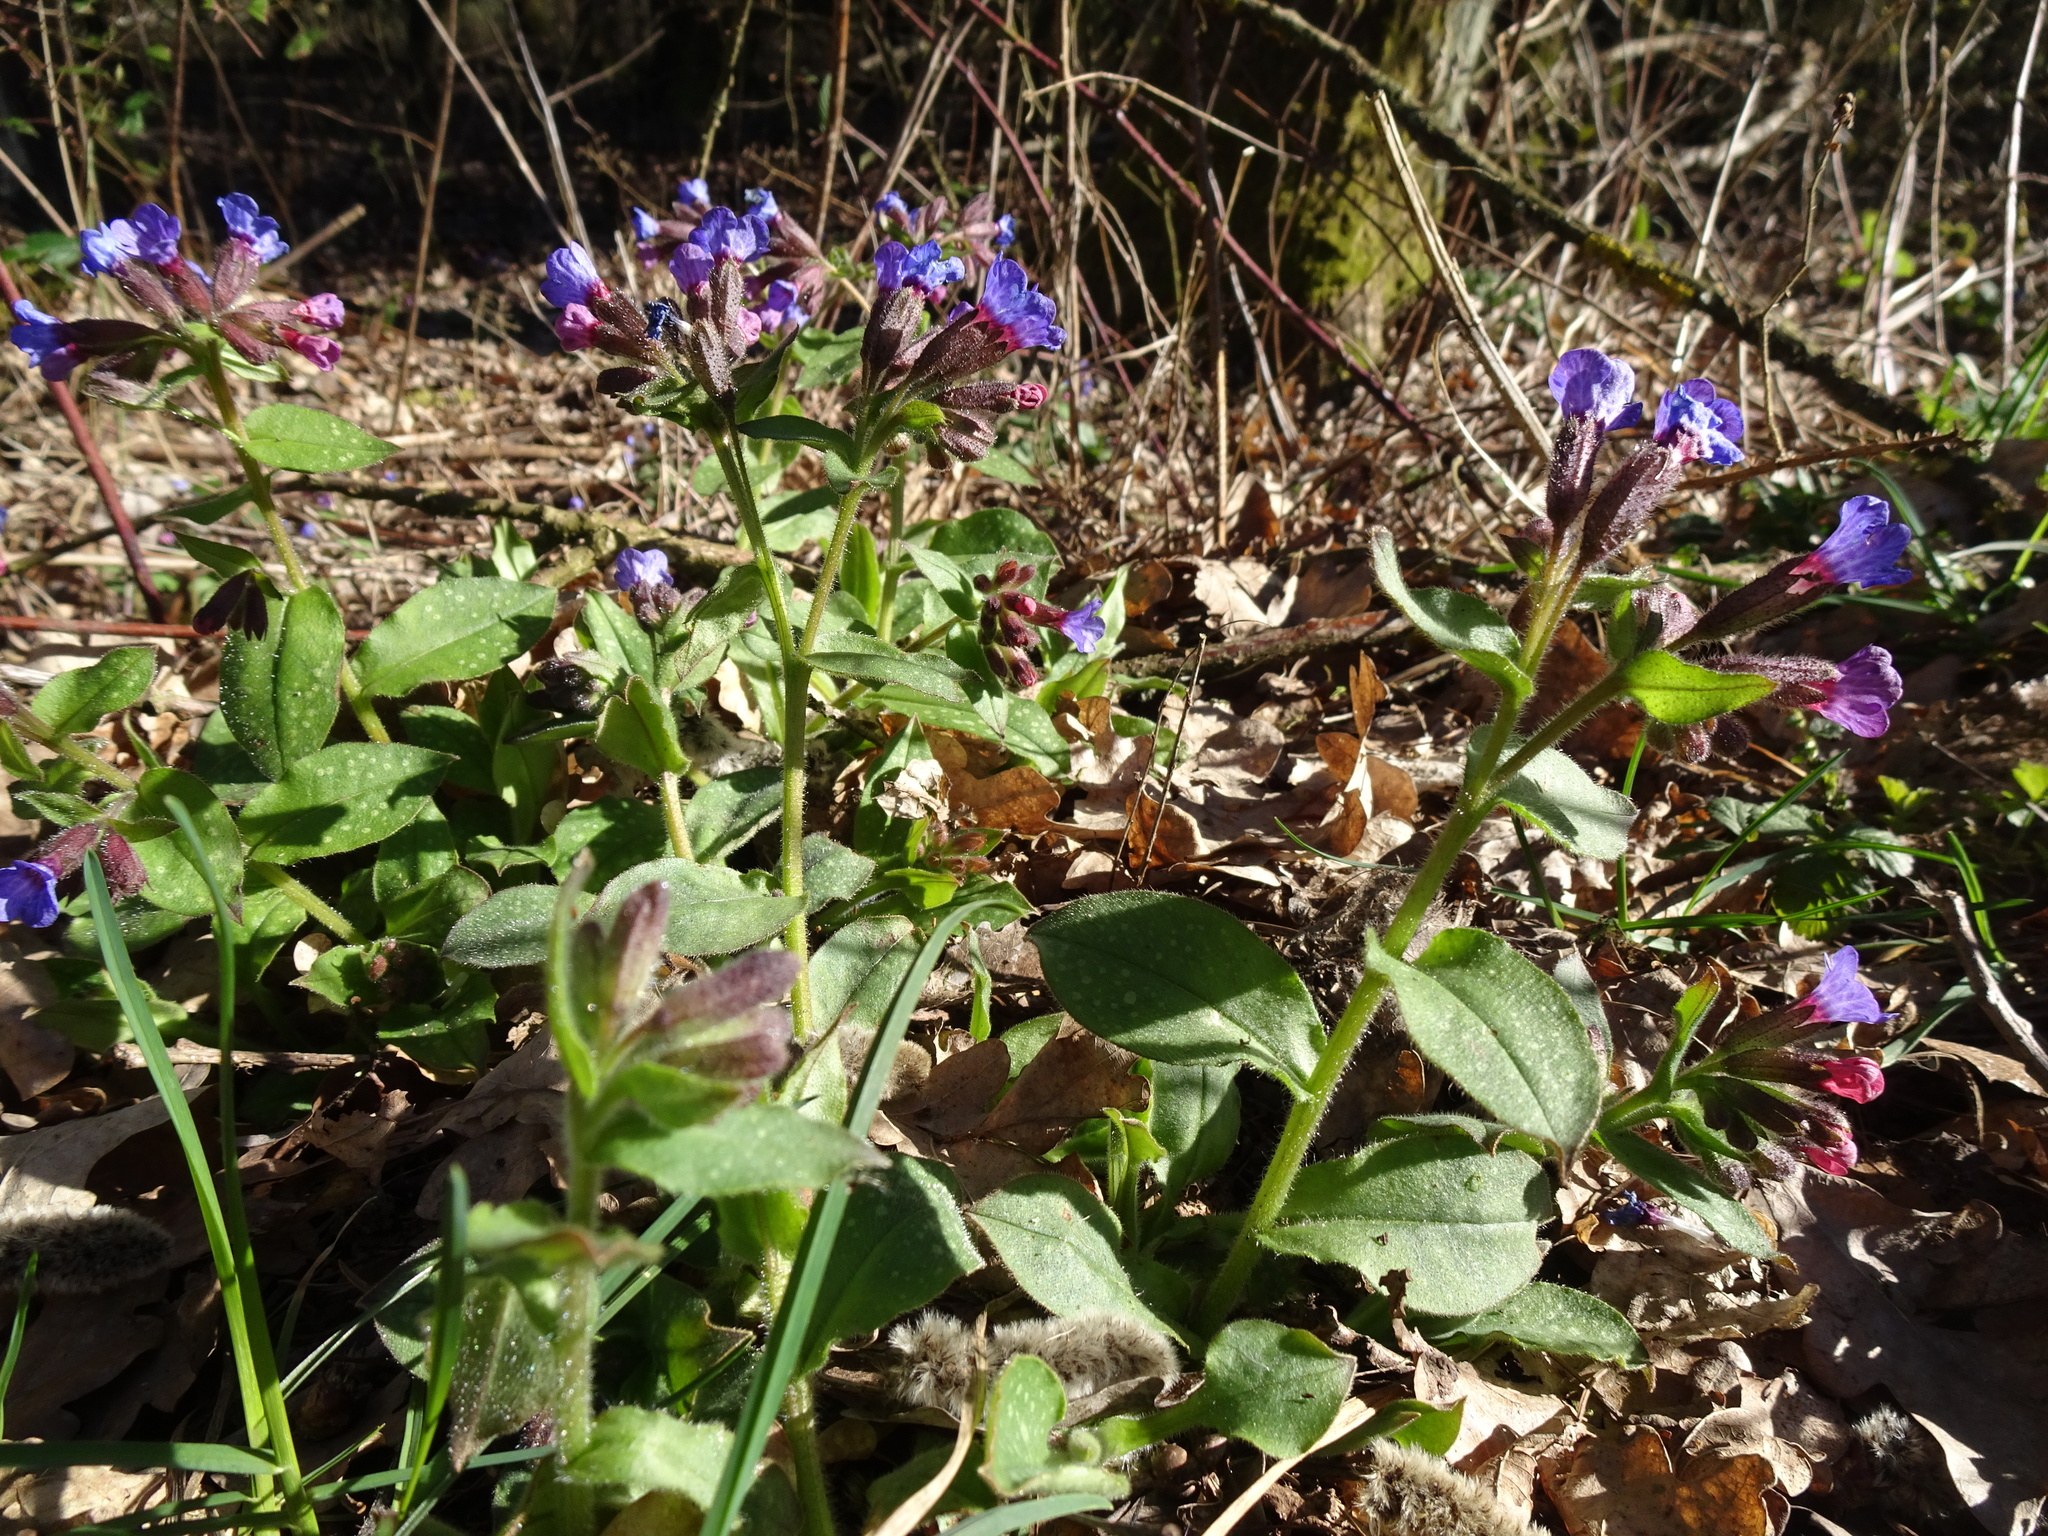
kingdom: Plantae
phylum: Tracheophyta
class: Magnoliopsida
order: Boraginales
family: Boraginaceae
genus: Pulmonaria
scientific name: Pulmonaria officinalis
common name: Lungwort
